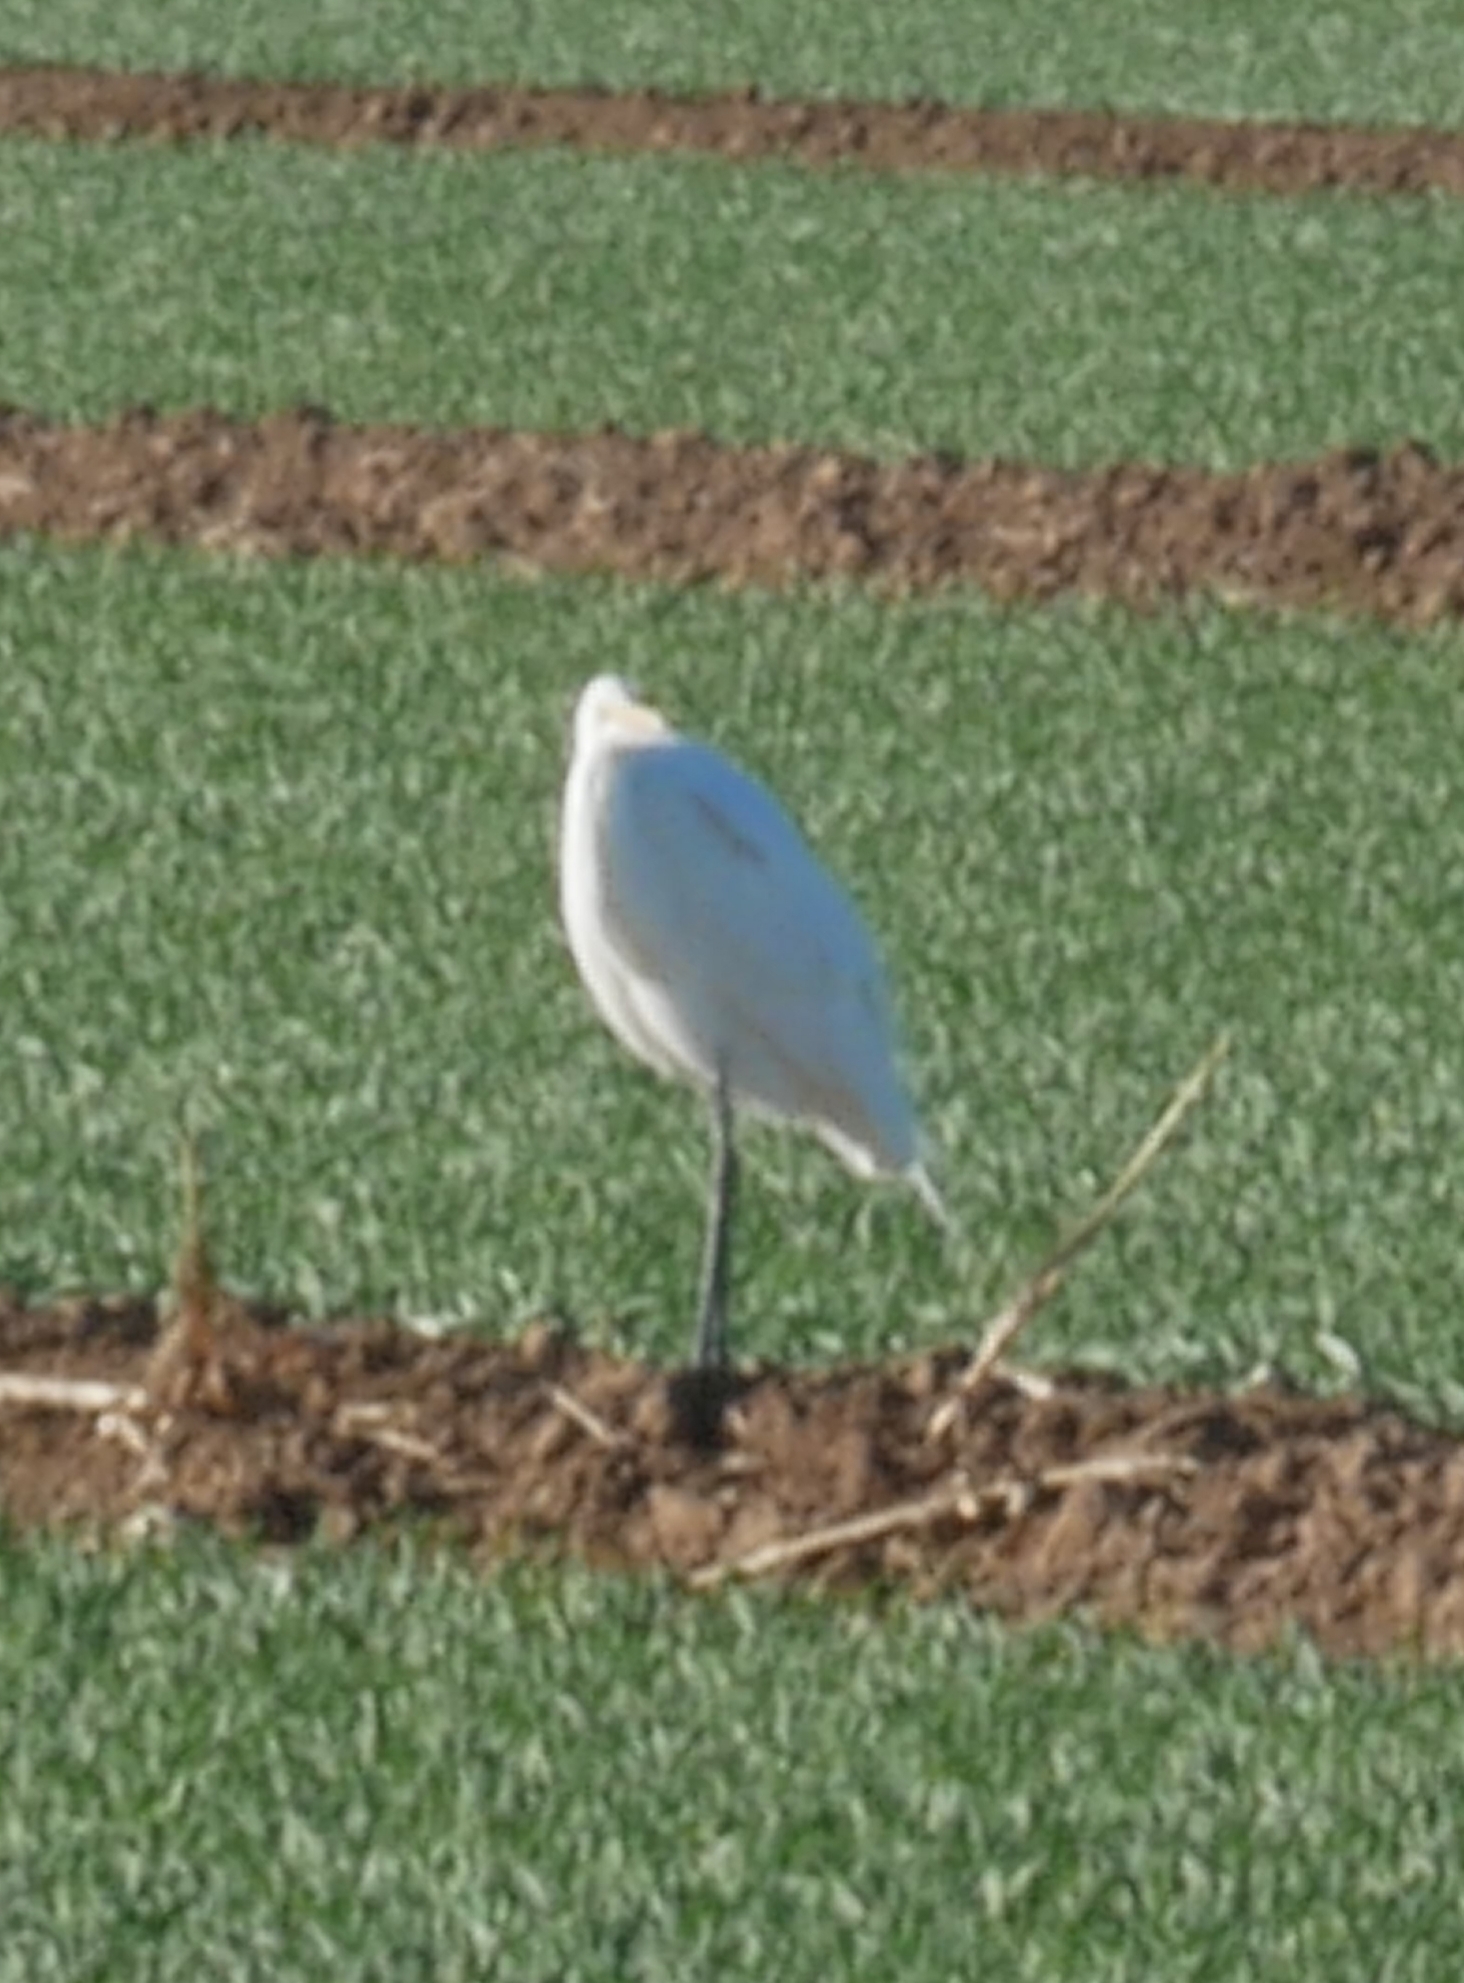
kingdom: Animalia
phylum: Chordata
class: Aves
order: Pelecaniformes
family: Ardeidae
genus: Ardea
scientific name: Ardea alba
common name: Great egret
